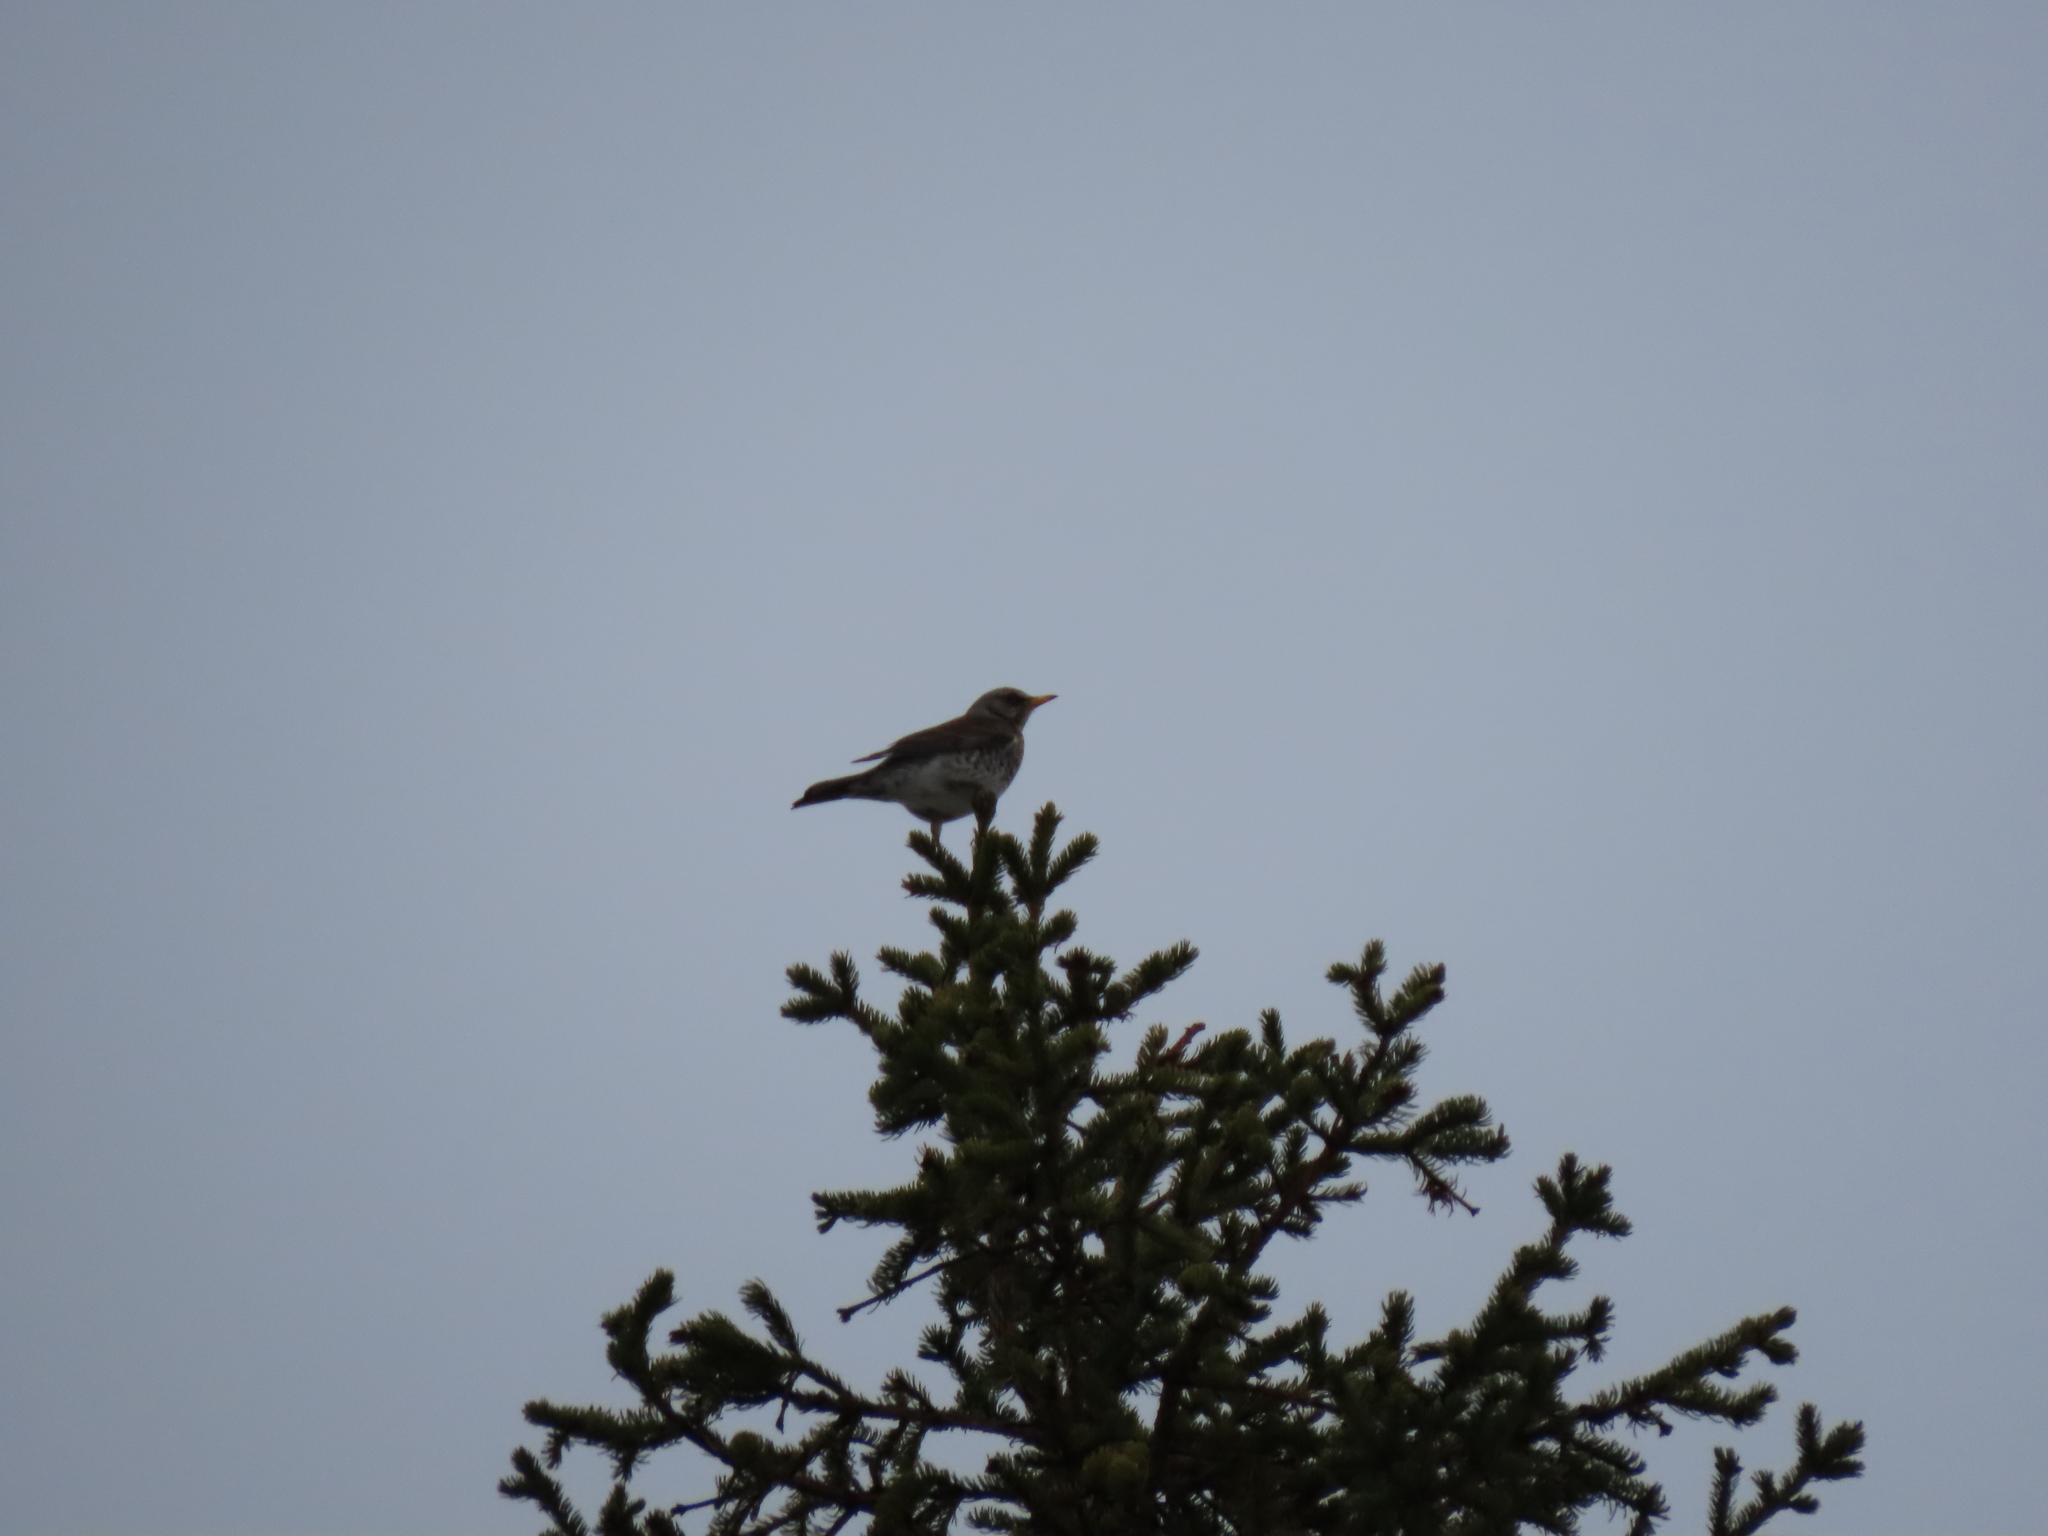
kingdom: Animalia
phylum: Chordata
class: Aves
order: Passeriformes
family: Turdidae
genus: Turdus
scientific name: Turdus pilaris
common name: Fieldfare
